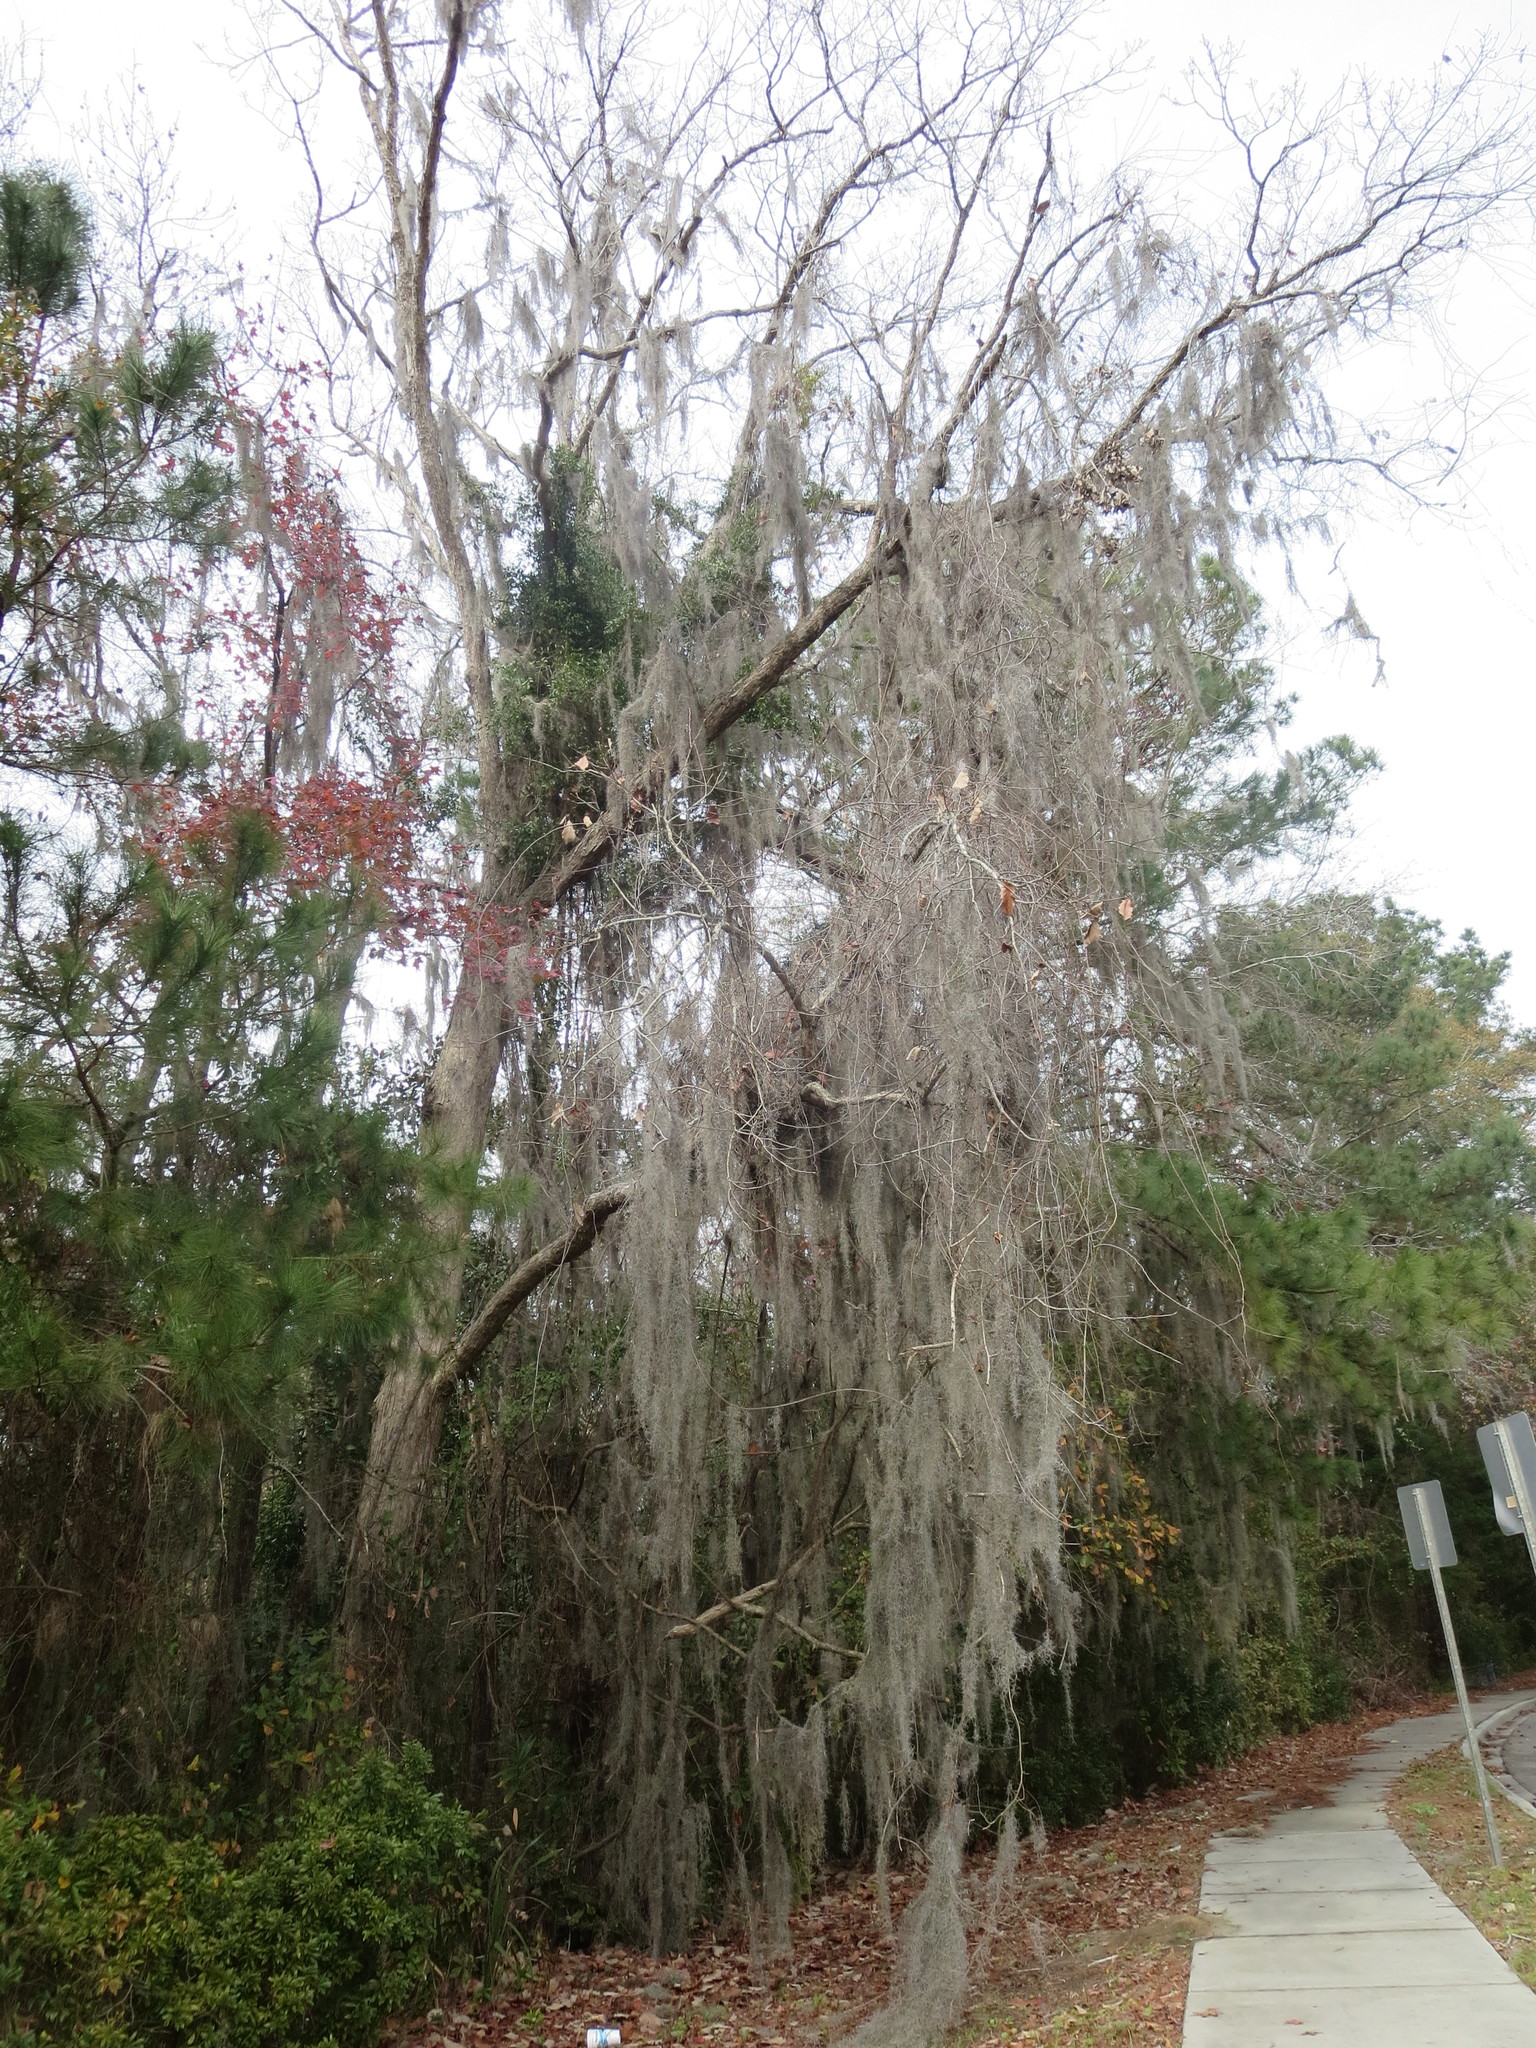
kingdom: Plantae
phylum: Tracheophyta
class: Liliopsida
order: Poales
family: Bromeliaceae
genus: Tillandsia
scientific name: Tillandsia usneoides
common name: Spanish moss
